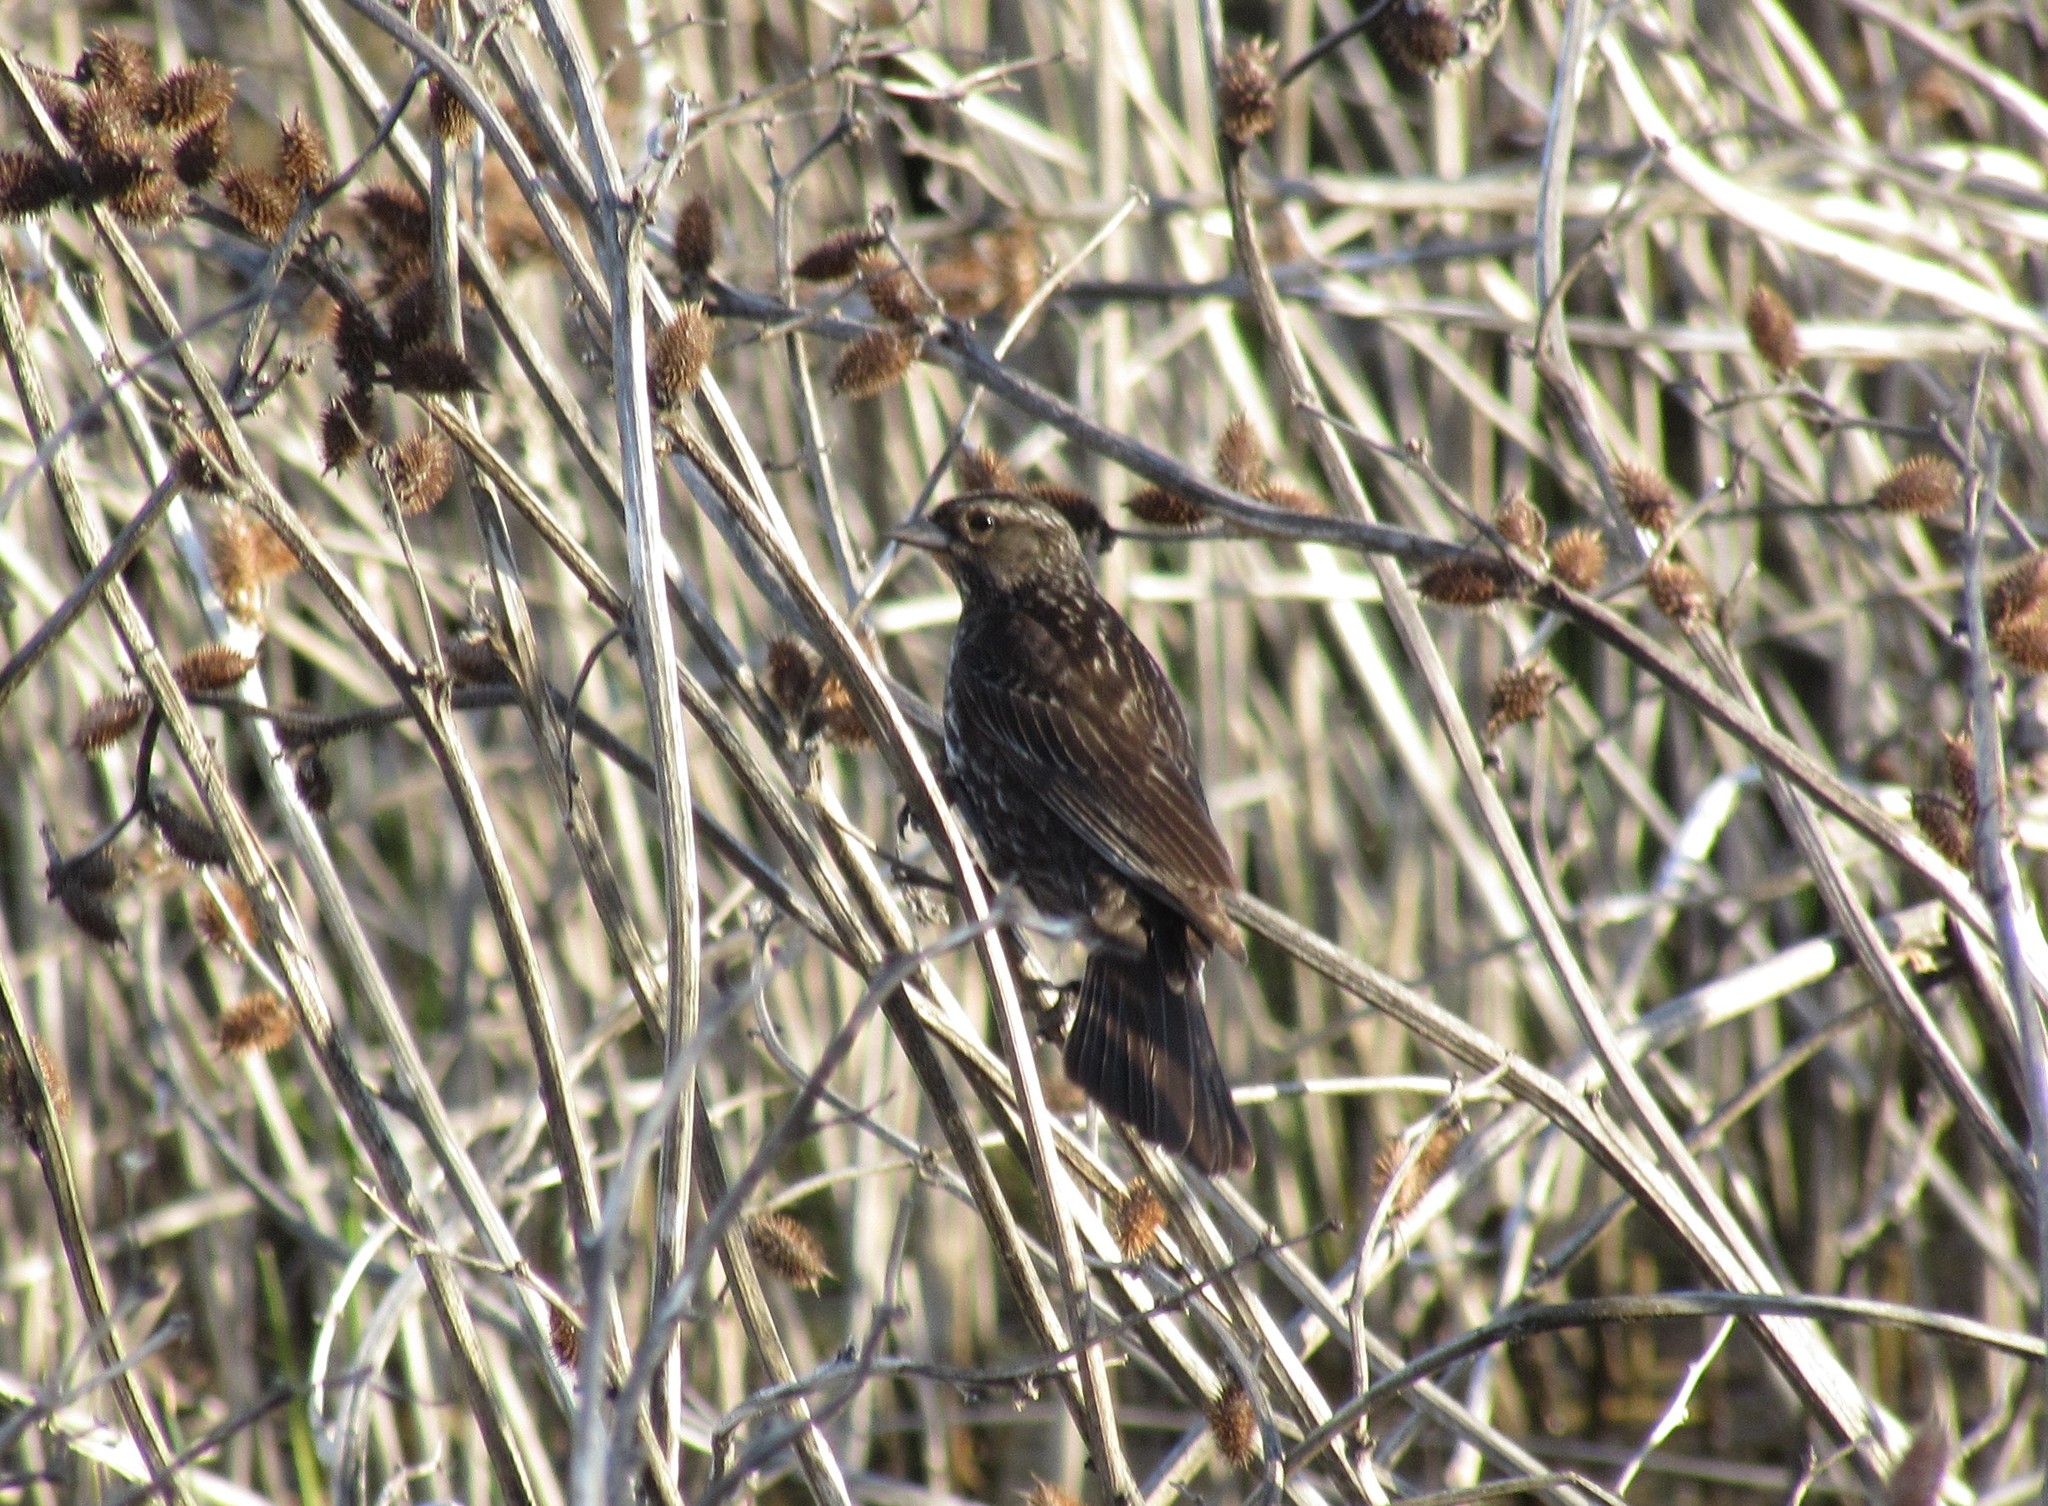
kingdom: Animalia
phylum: Chordata
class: Aves
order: Passeriformes
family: Icteridae
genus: Agelaius
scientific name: Agelaius phoeniceus
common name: Red-winged blackbird
